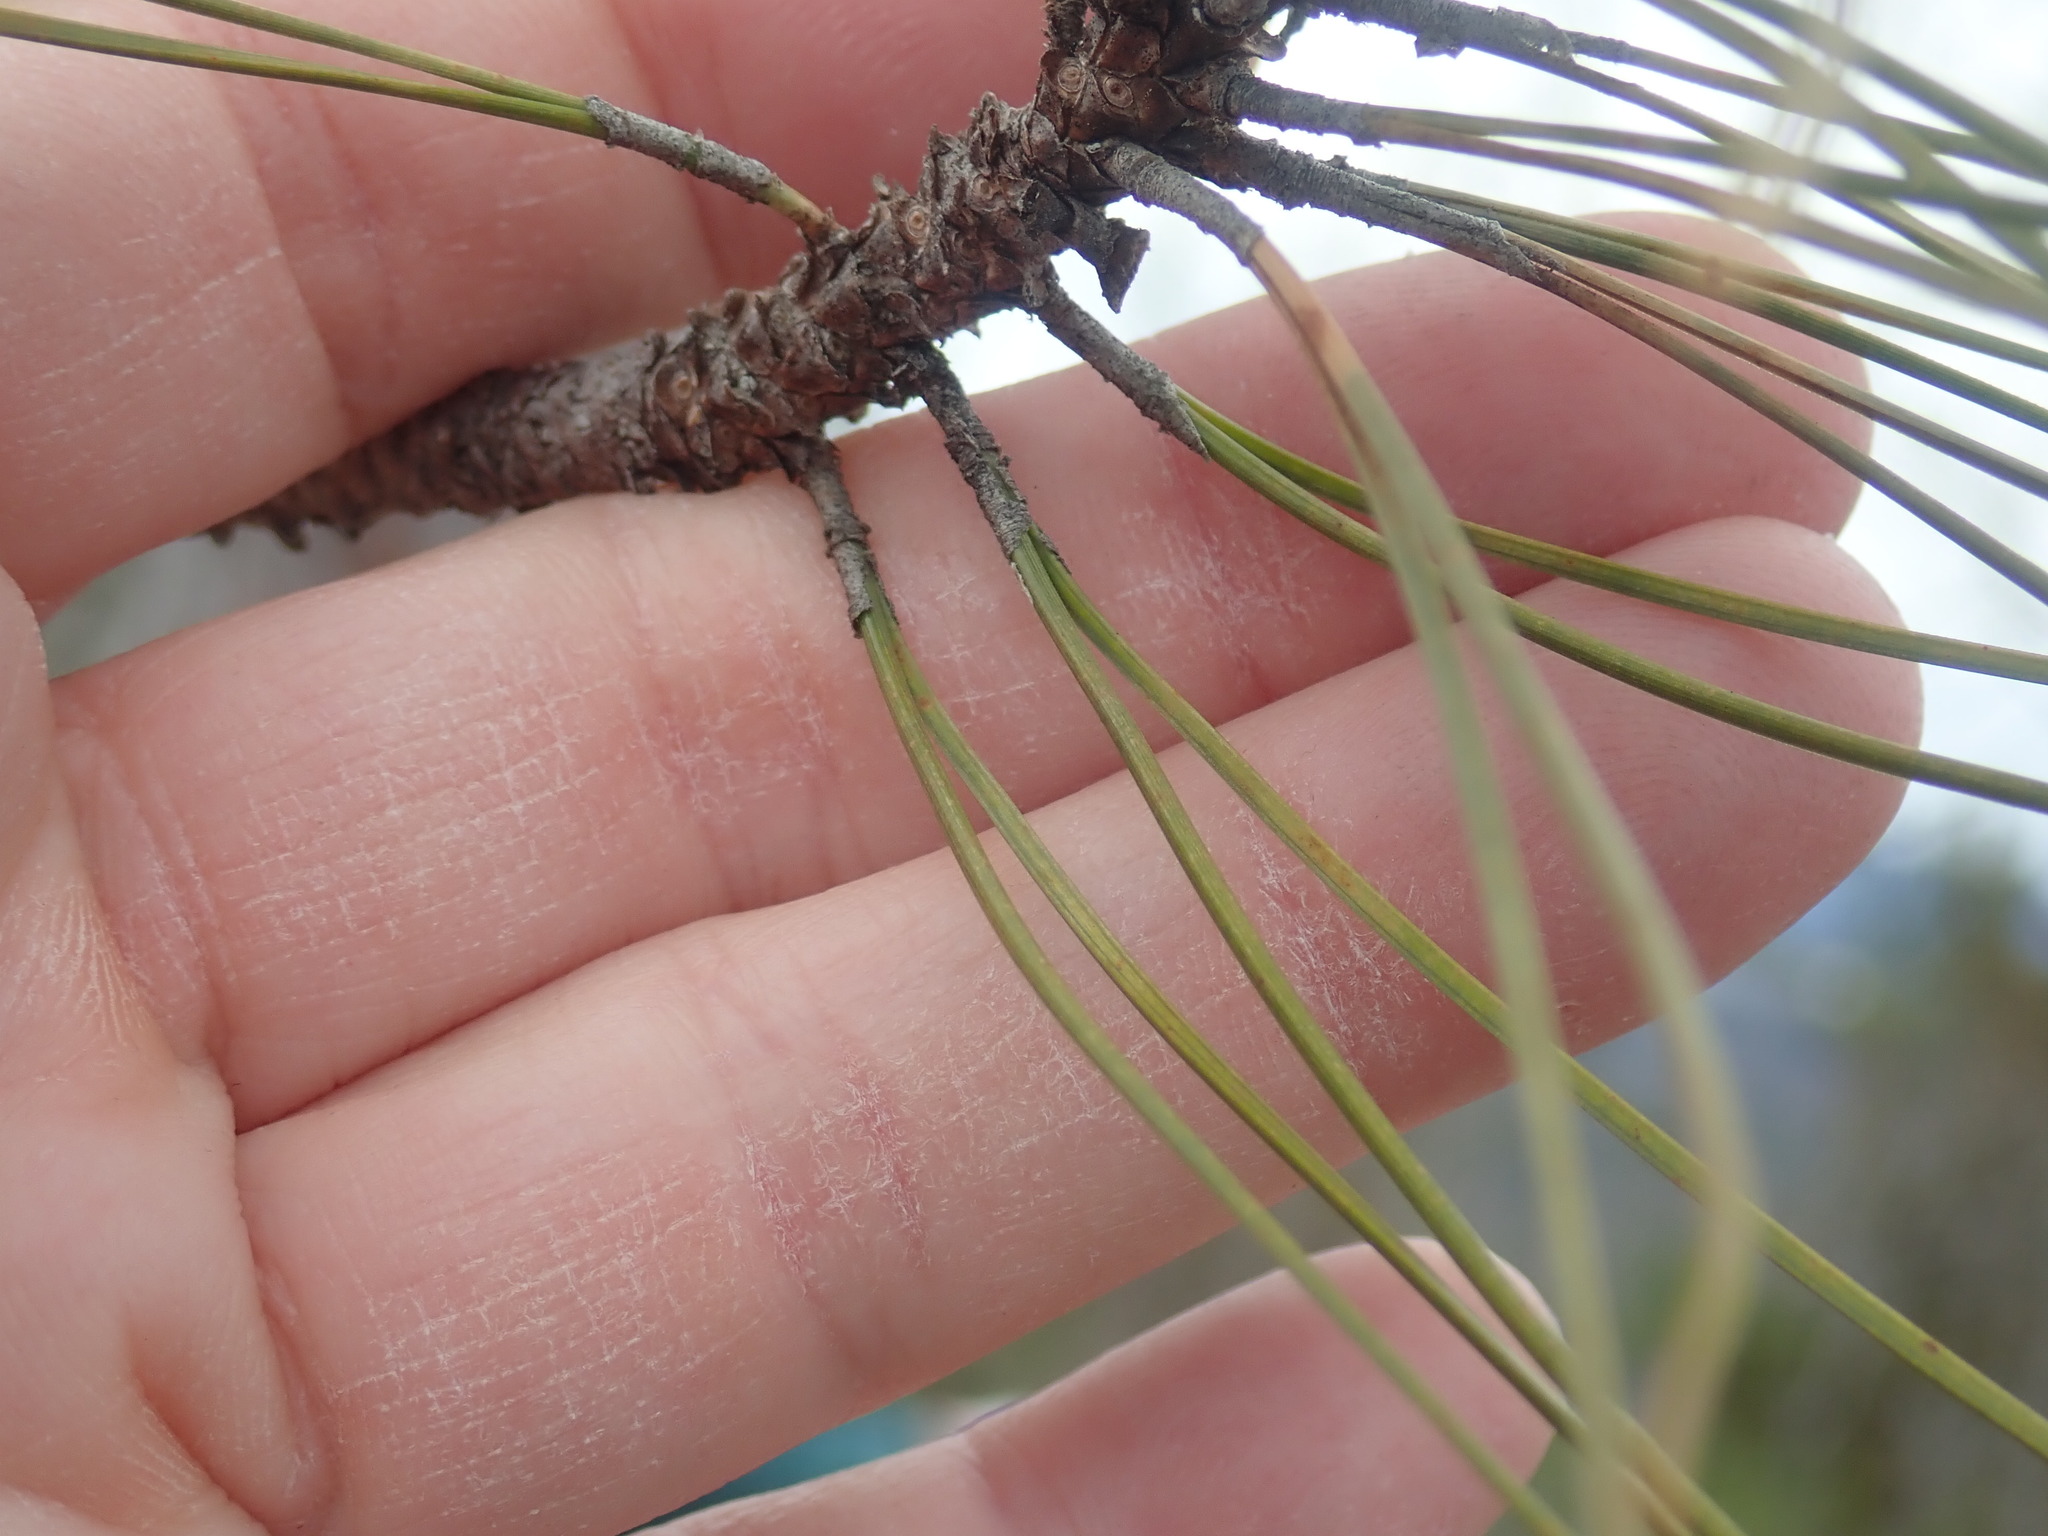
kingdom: Plantae
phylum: Tracheophyta
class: Pinopsida
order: Pinales
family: Pinaceae
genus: Pinus
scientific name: Pinus resinosa
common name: Norway pine
